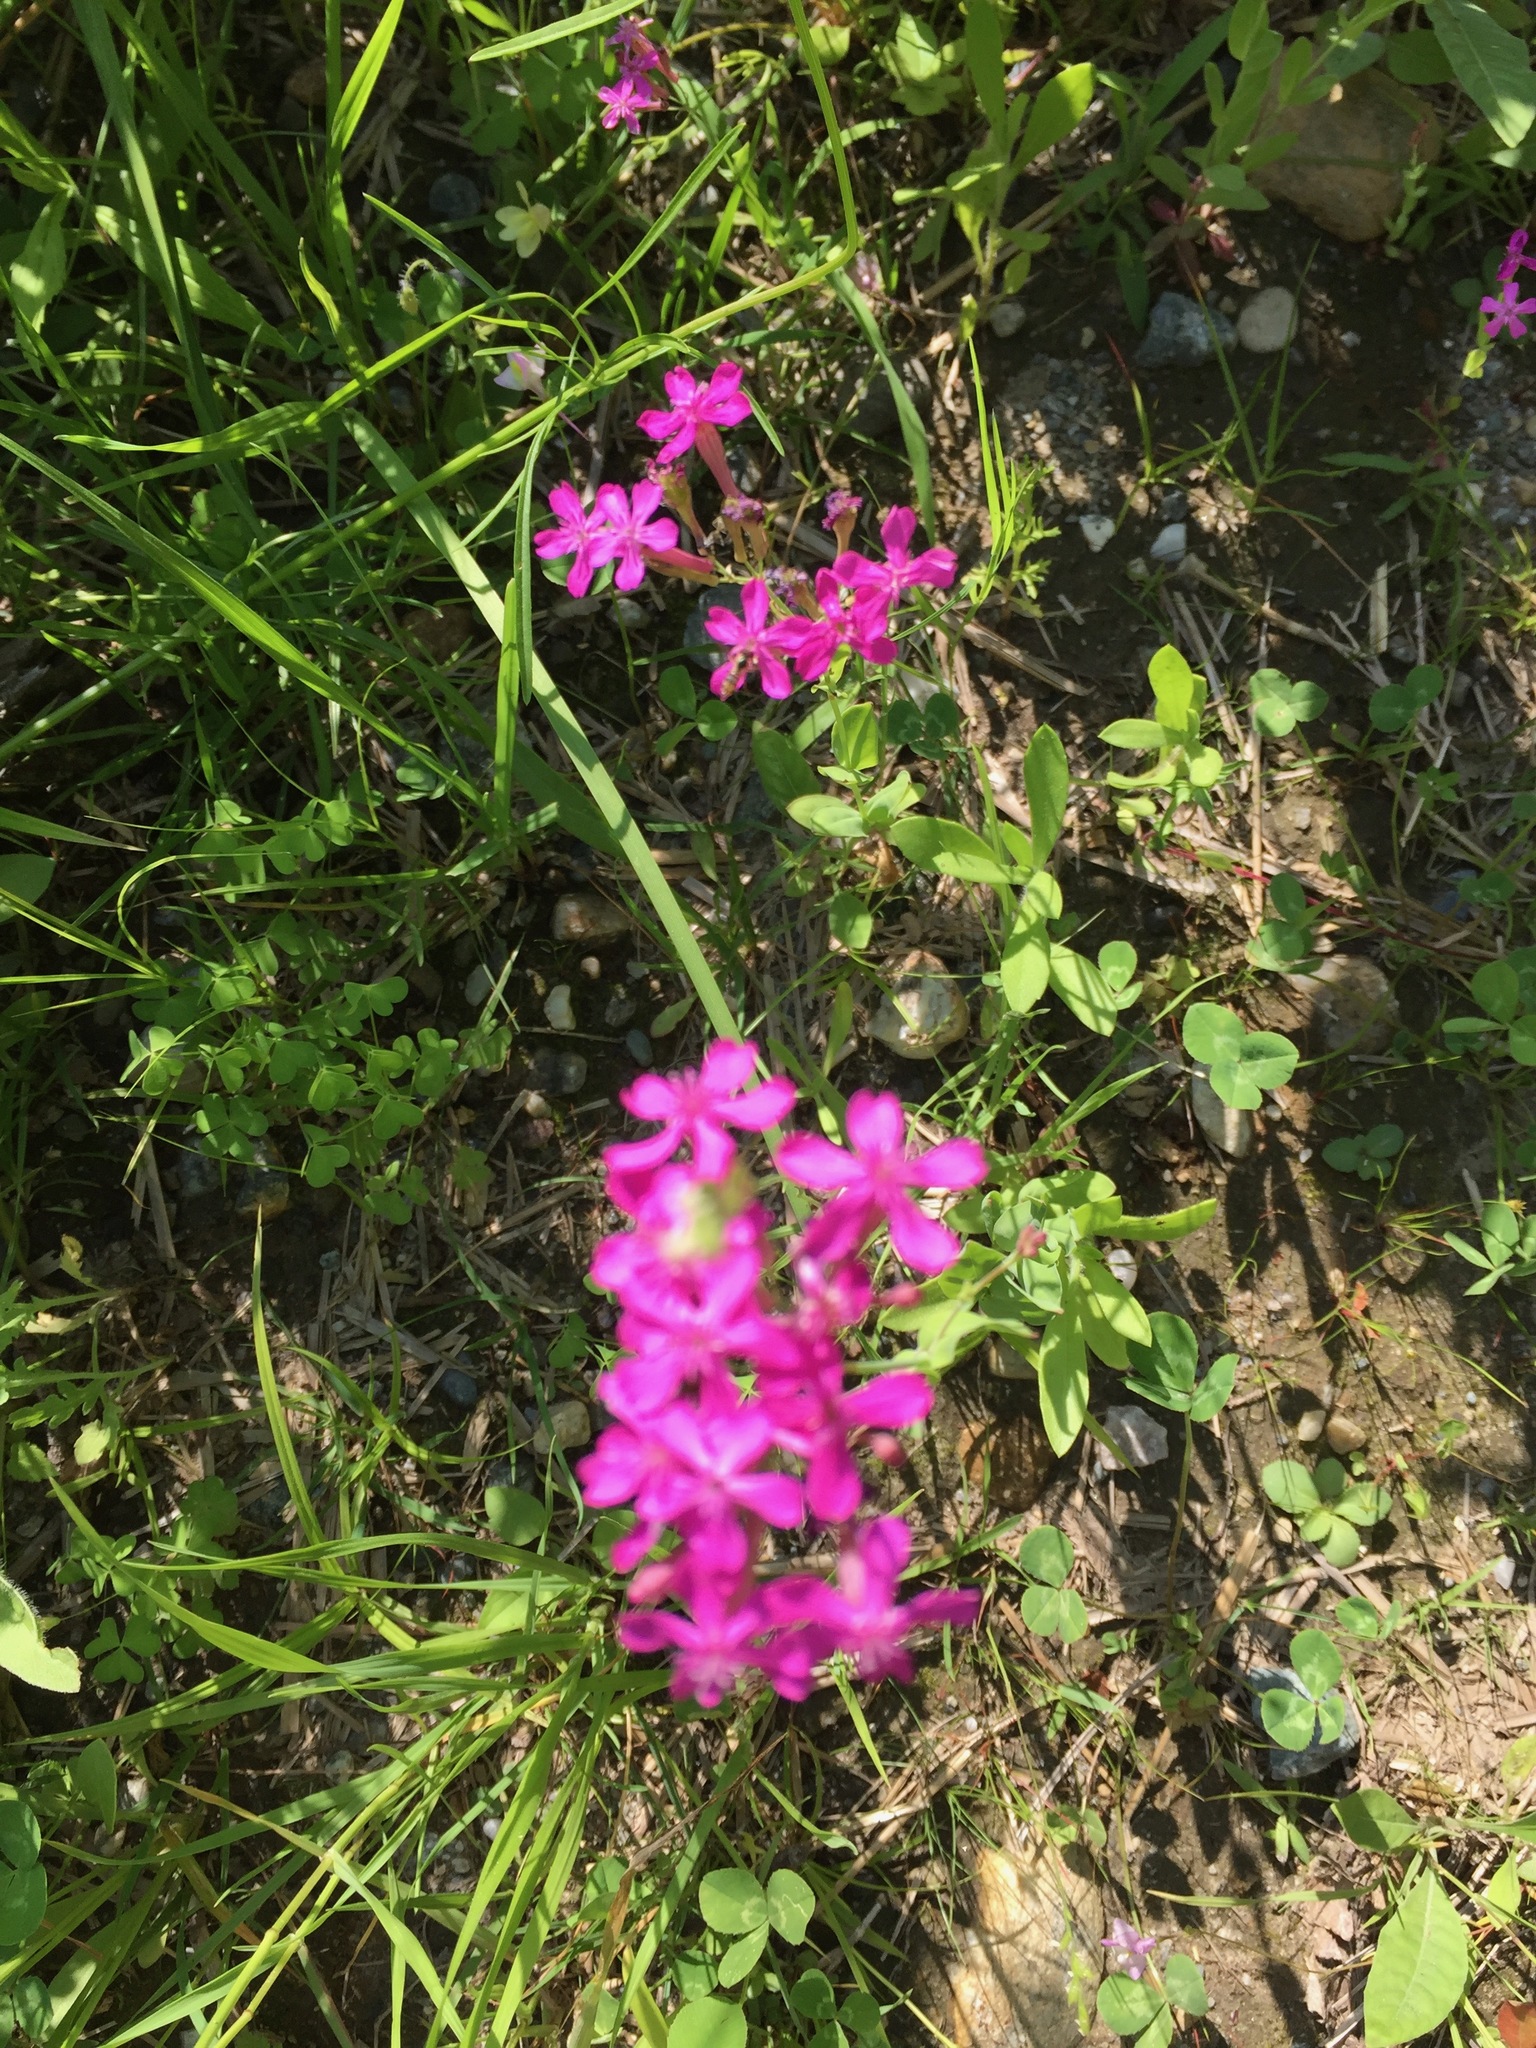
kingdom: Plantae
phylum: Tracheophyta
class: Magnoliopsida
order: Caryophyllales
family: Caryophyllaceae
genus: Atocion
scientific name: Atocion armeria
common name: Sweet william catchfly
